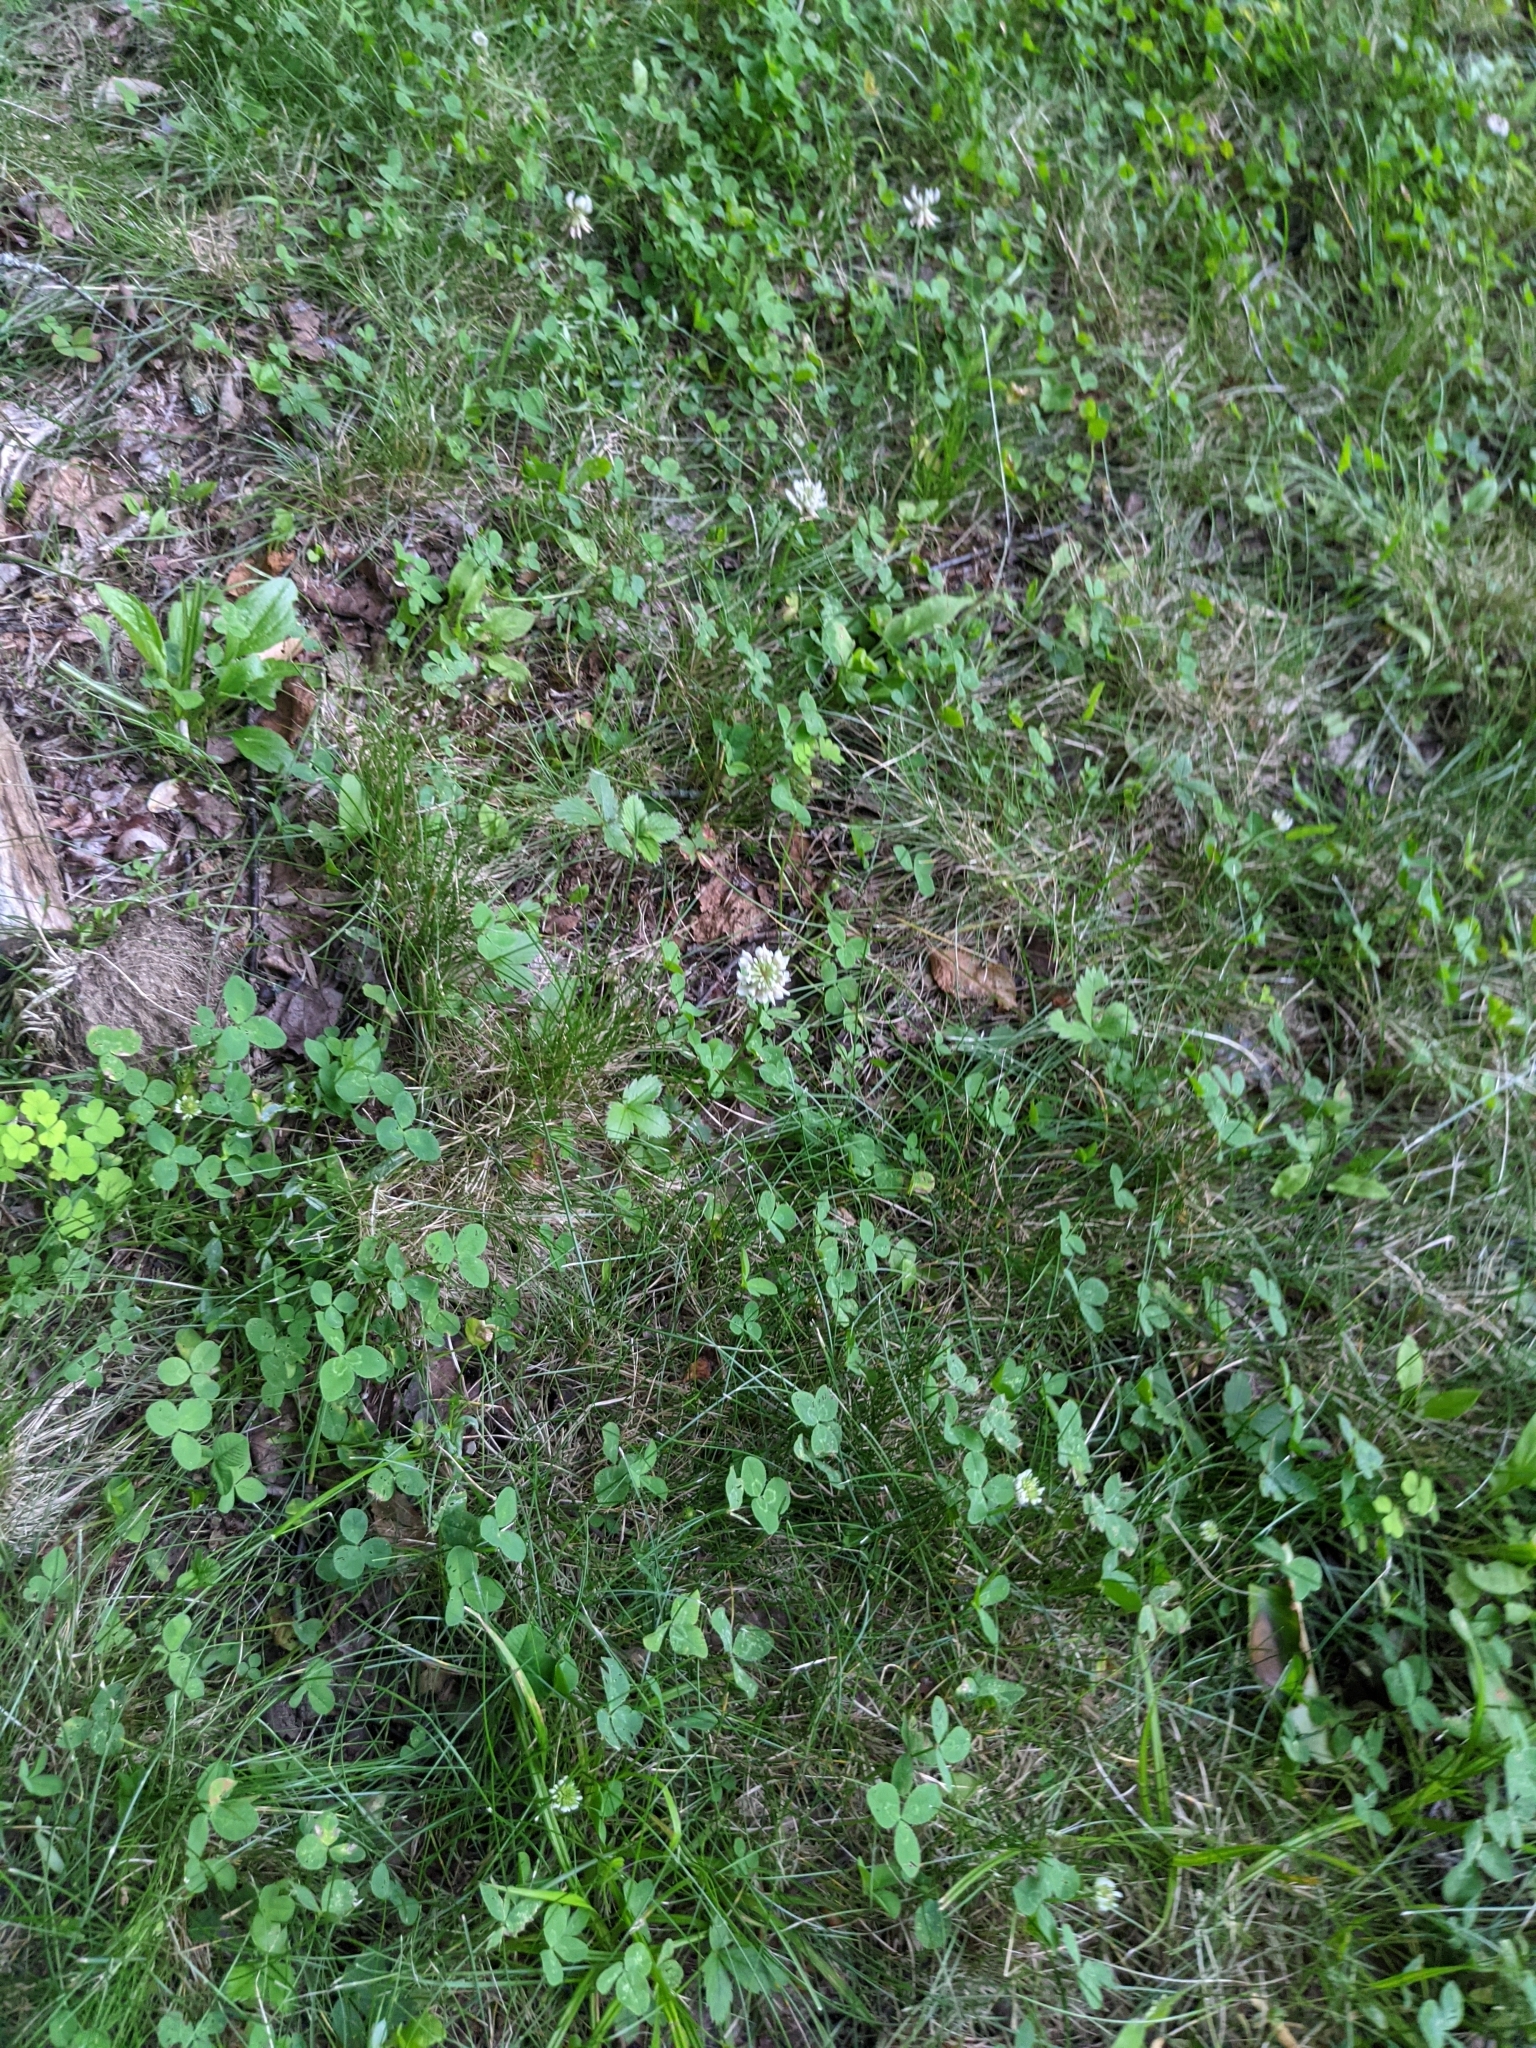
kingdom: Plantae
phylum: Tracheophyta
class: Magnoliopsida
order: Fabales
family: Fabaceae
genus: Trifolium
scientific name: Trifolium repens
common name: White clover
